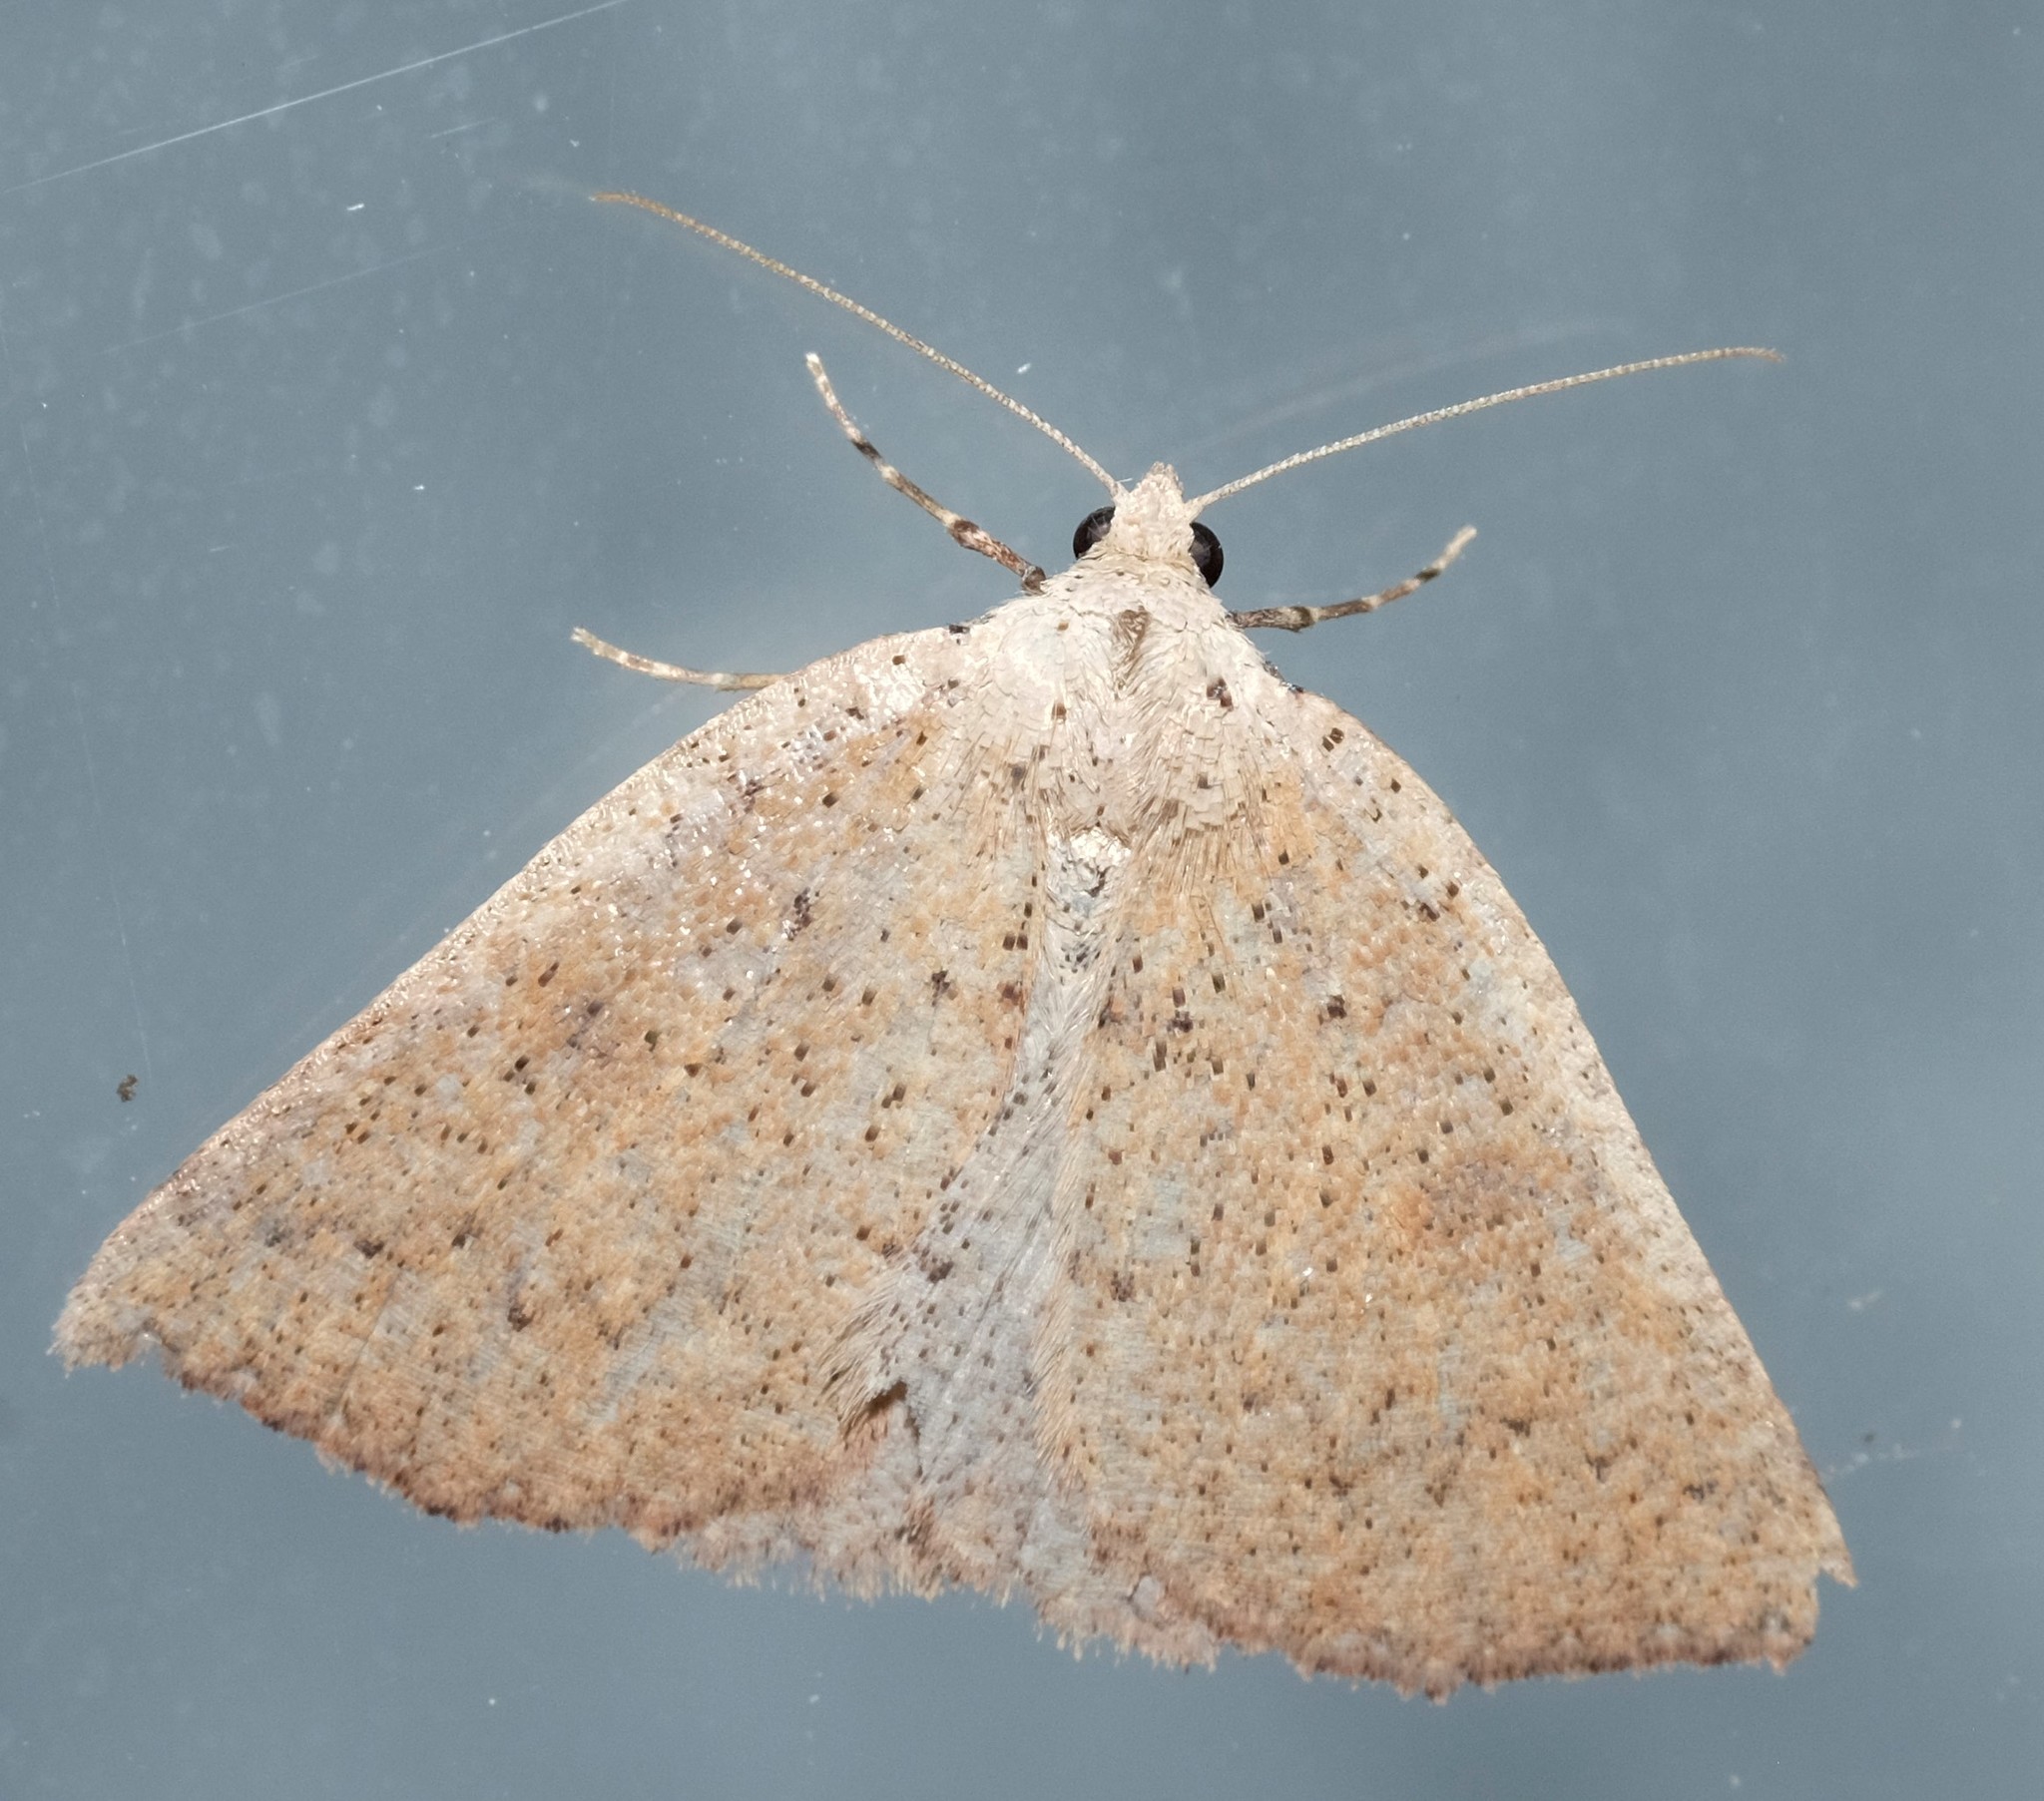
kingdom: Animalia
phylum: Arthropoda
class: Insecta
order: Lepidoptera
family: Geometridae
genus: Amelora
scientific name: Amelora demistis
